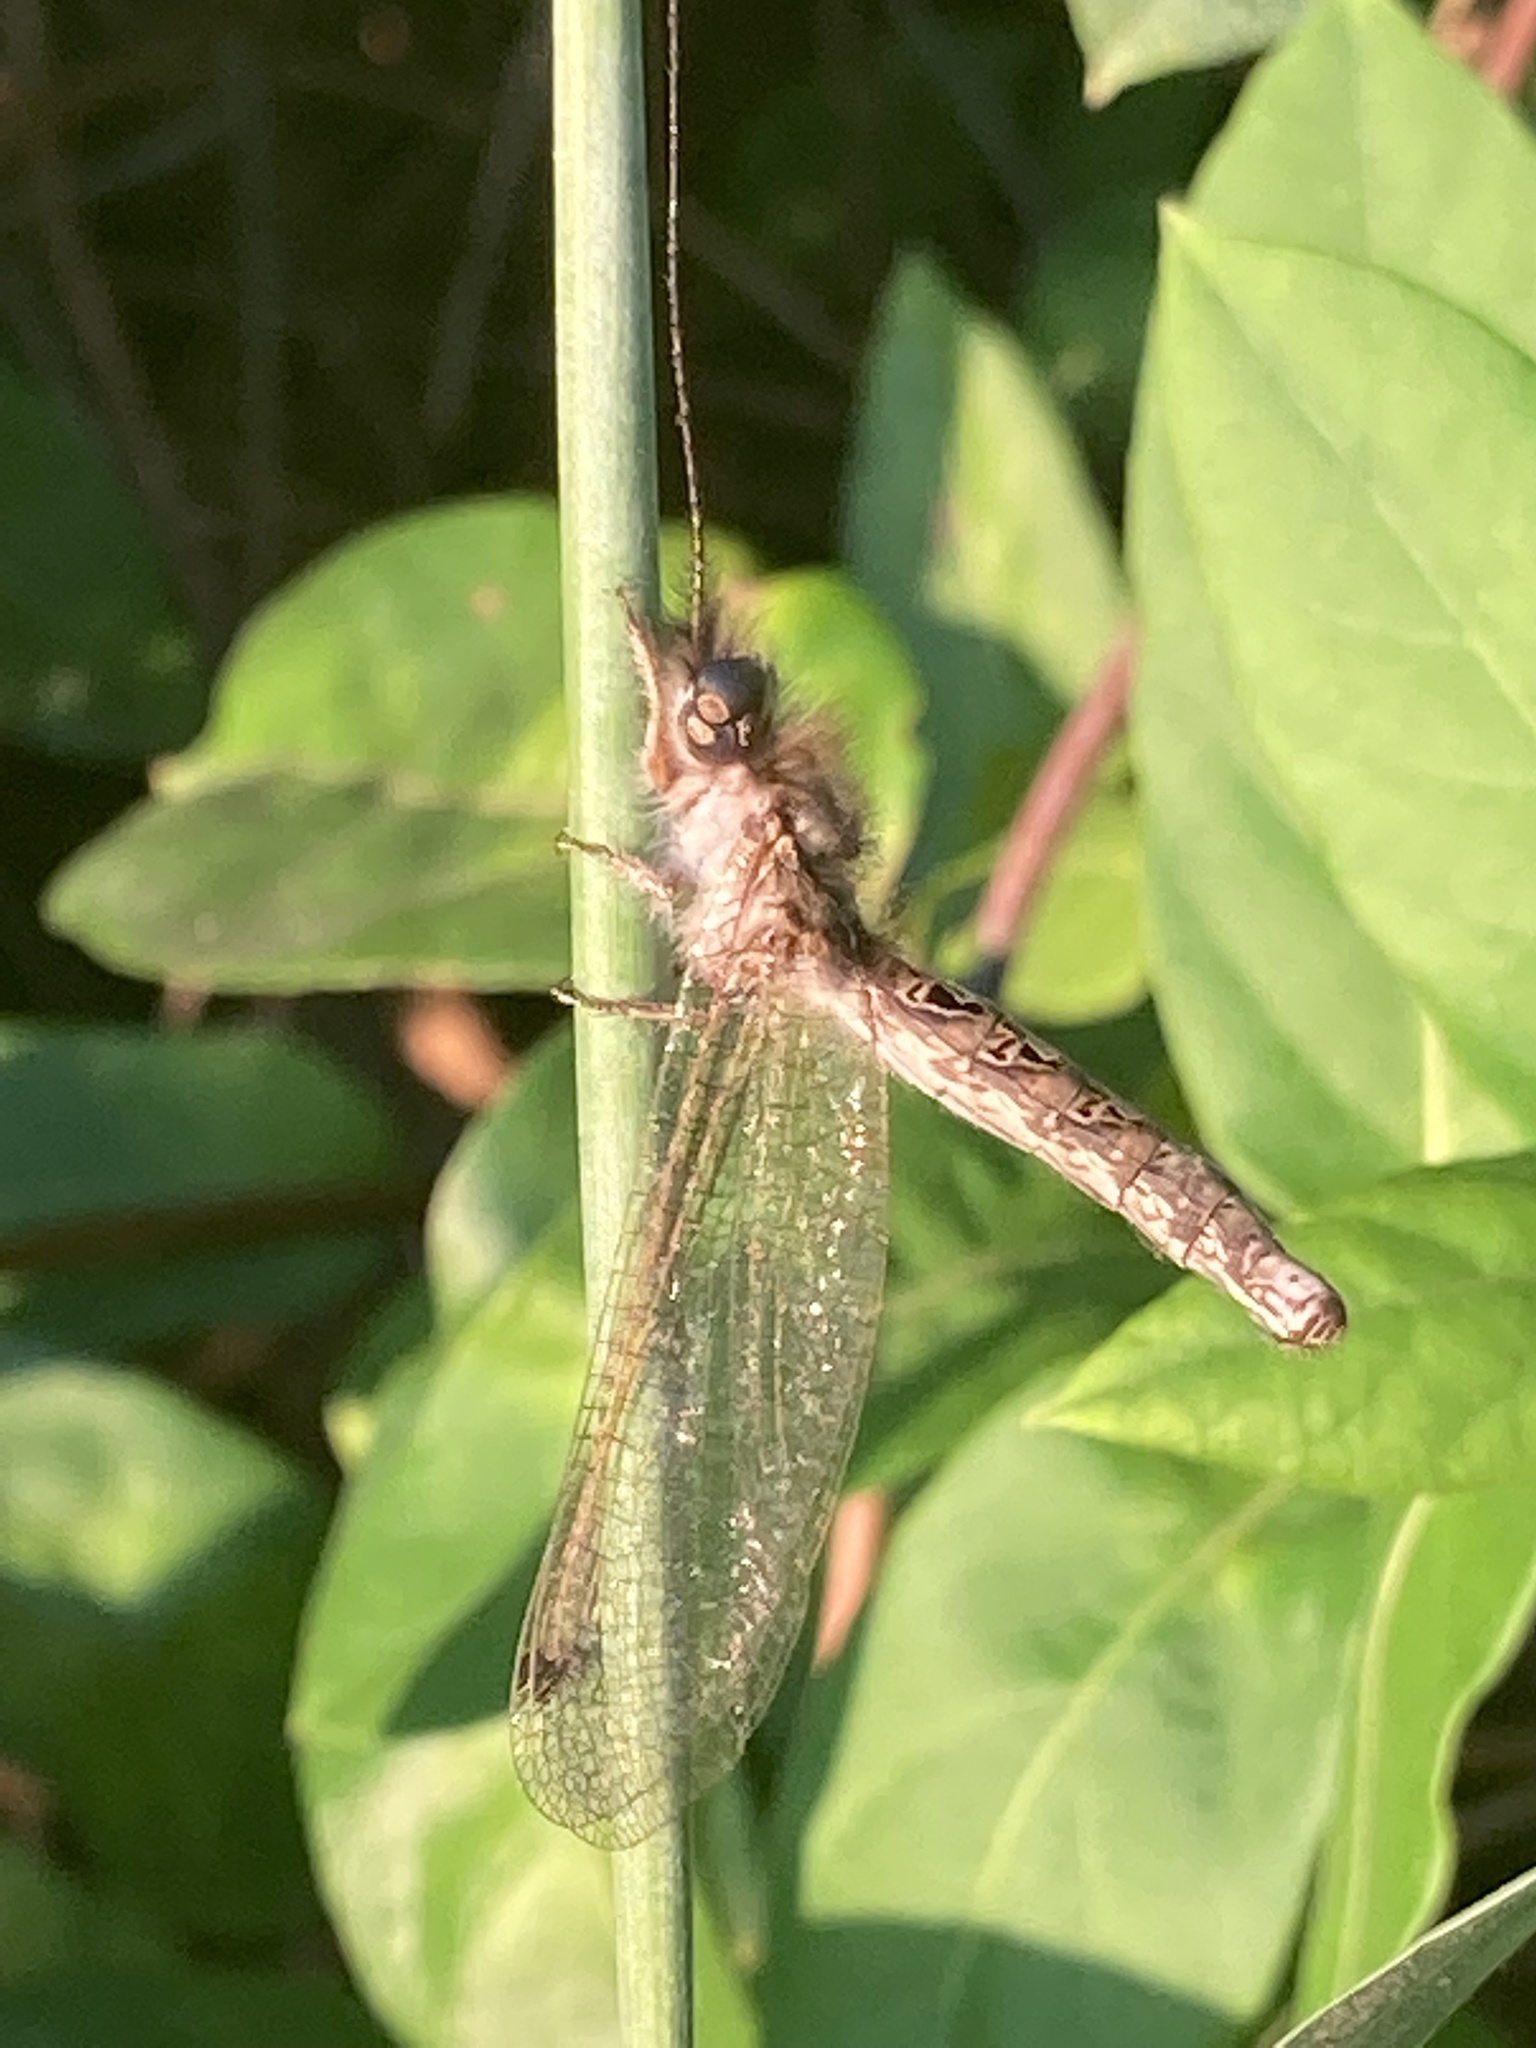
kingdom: Animalia
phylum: Arthropoda
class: Insecta
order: Neuroptera
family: Ascalaphidae
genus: Ululodes
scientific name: Ululodes macleayanus
